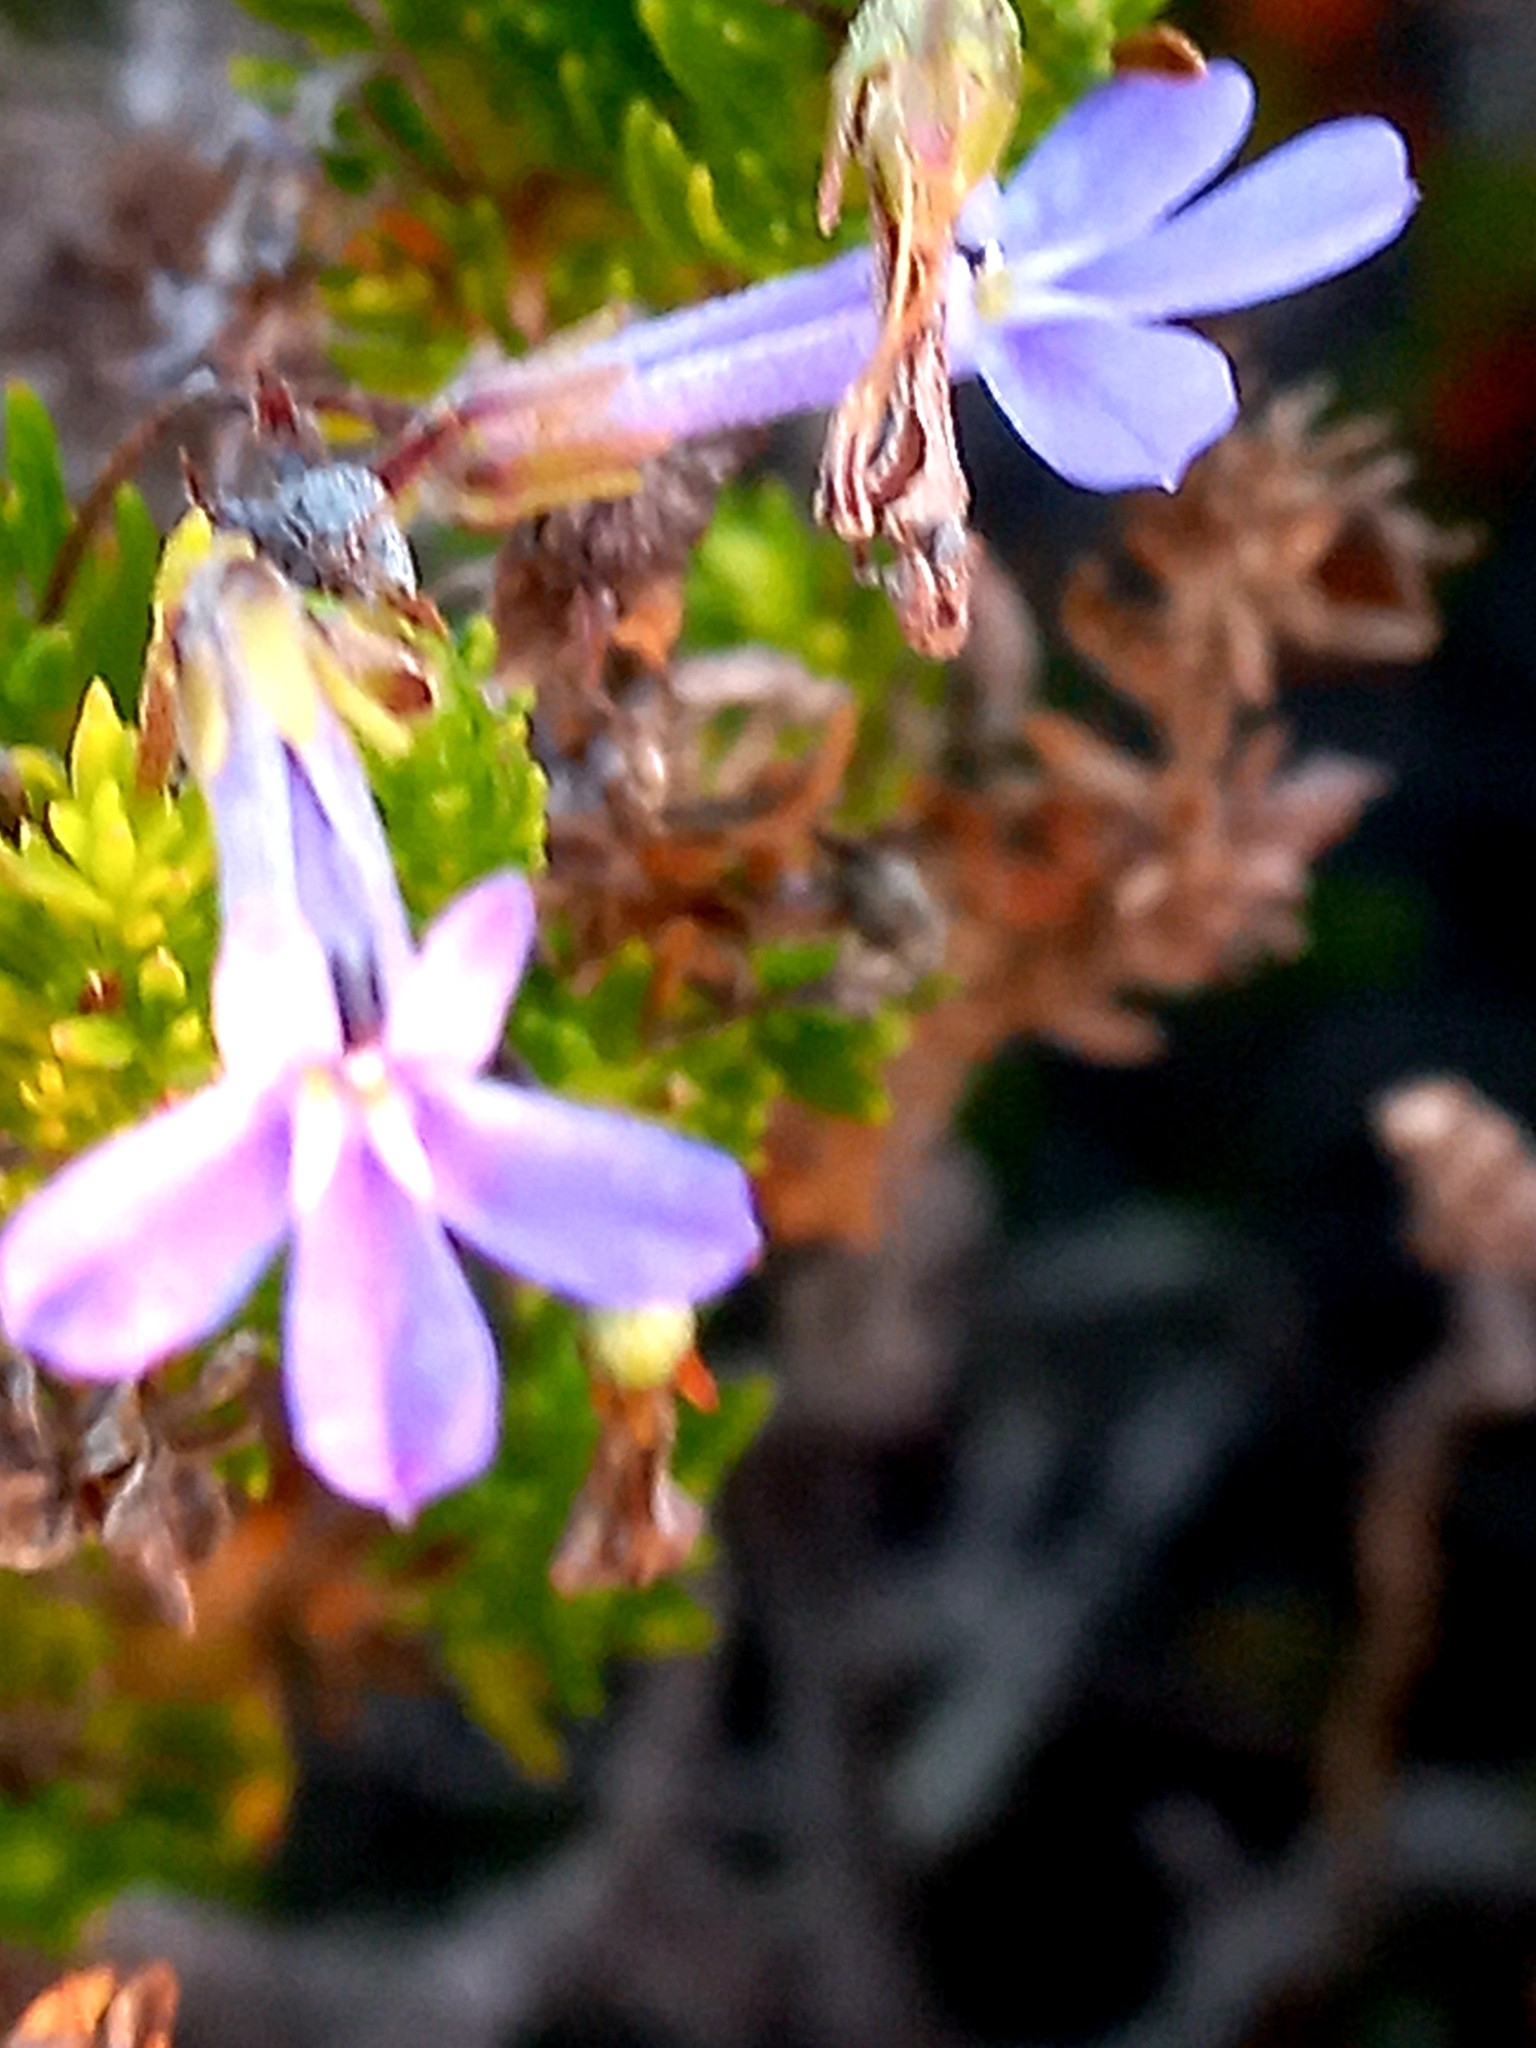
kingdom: Plantae
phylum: Tracheophyta
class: Magnoliopsida
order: Asterales
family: Campanulaceae
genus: Lobelia
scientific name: Lobelia pinifolia
